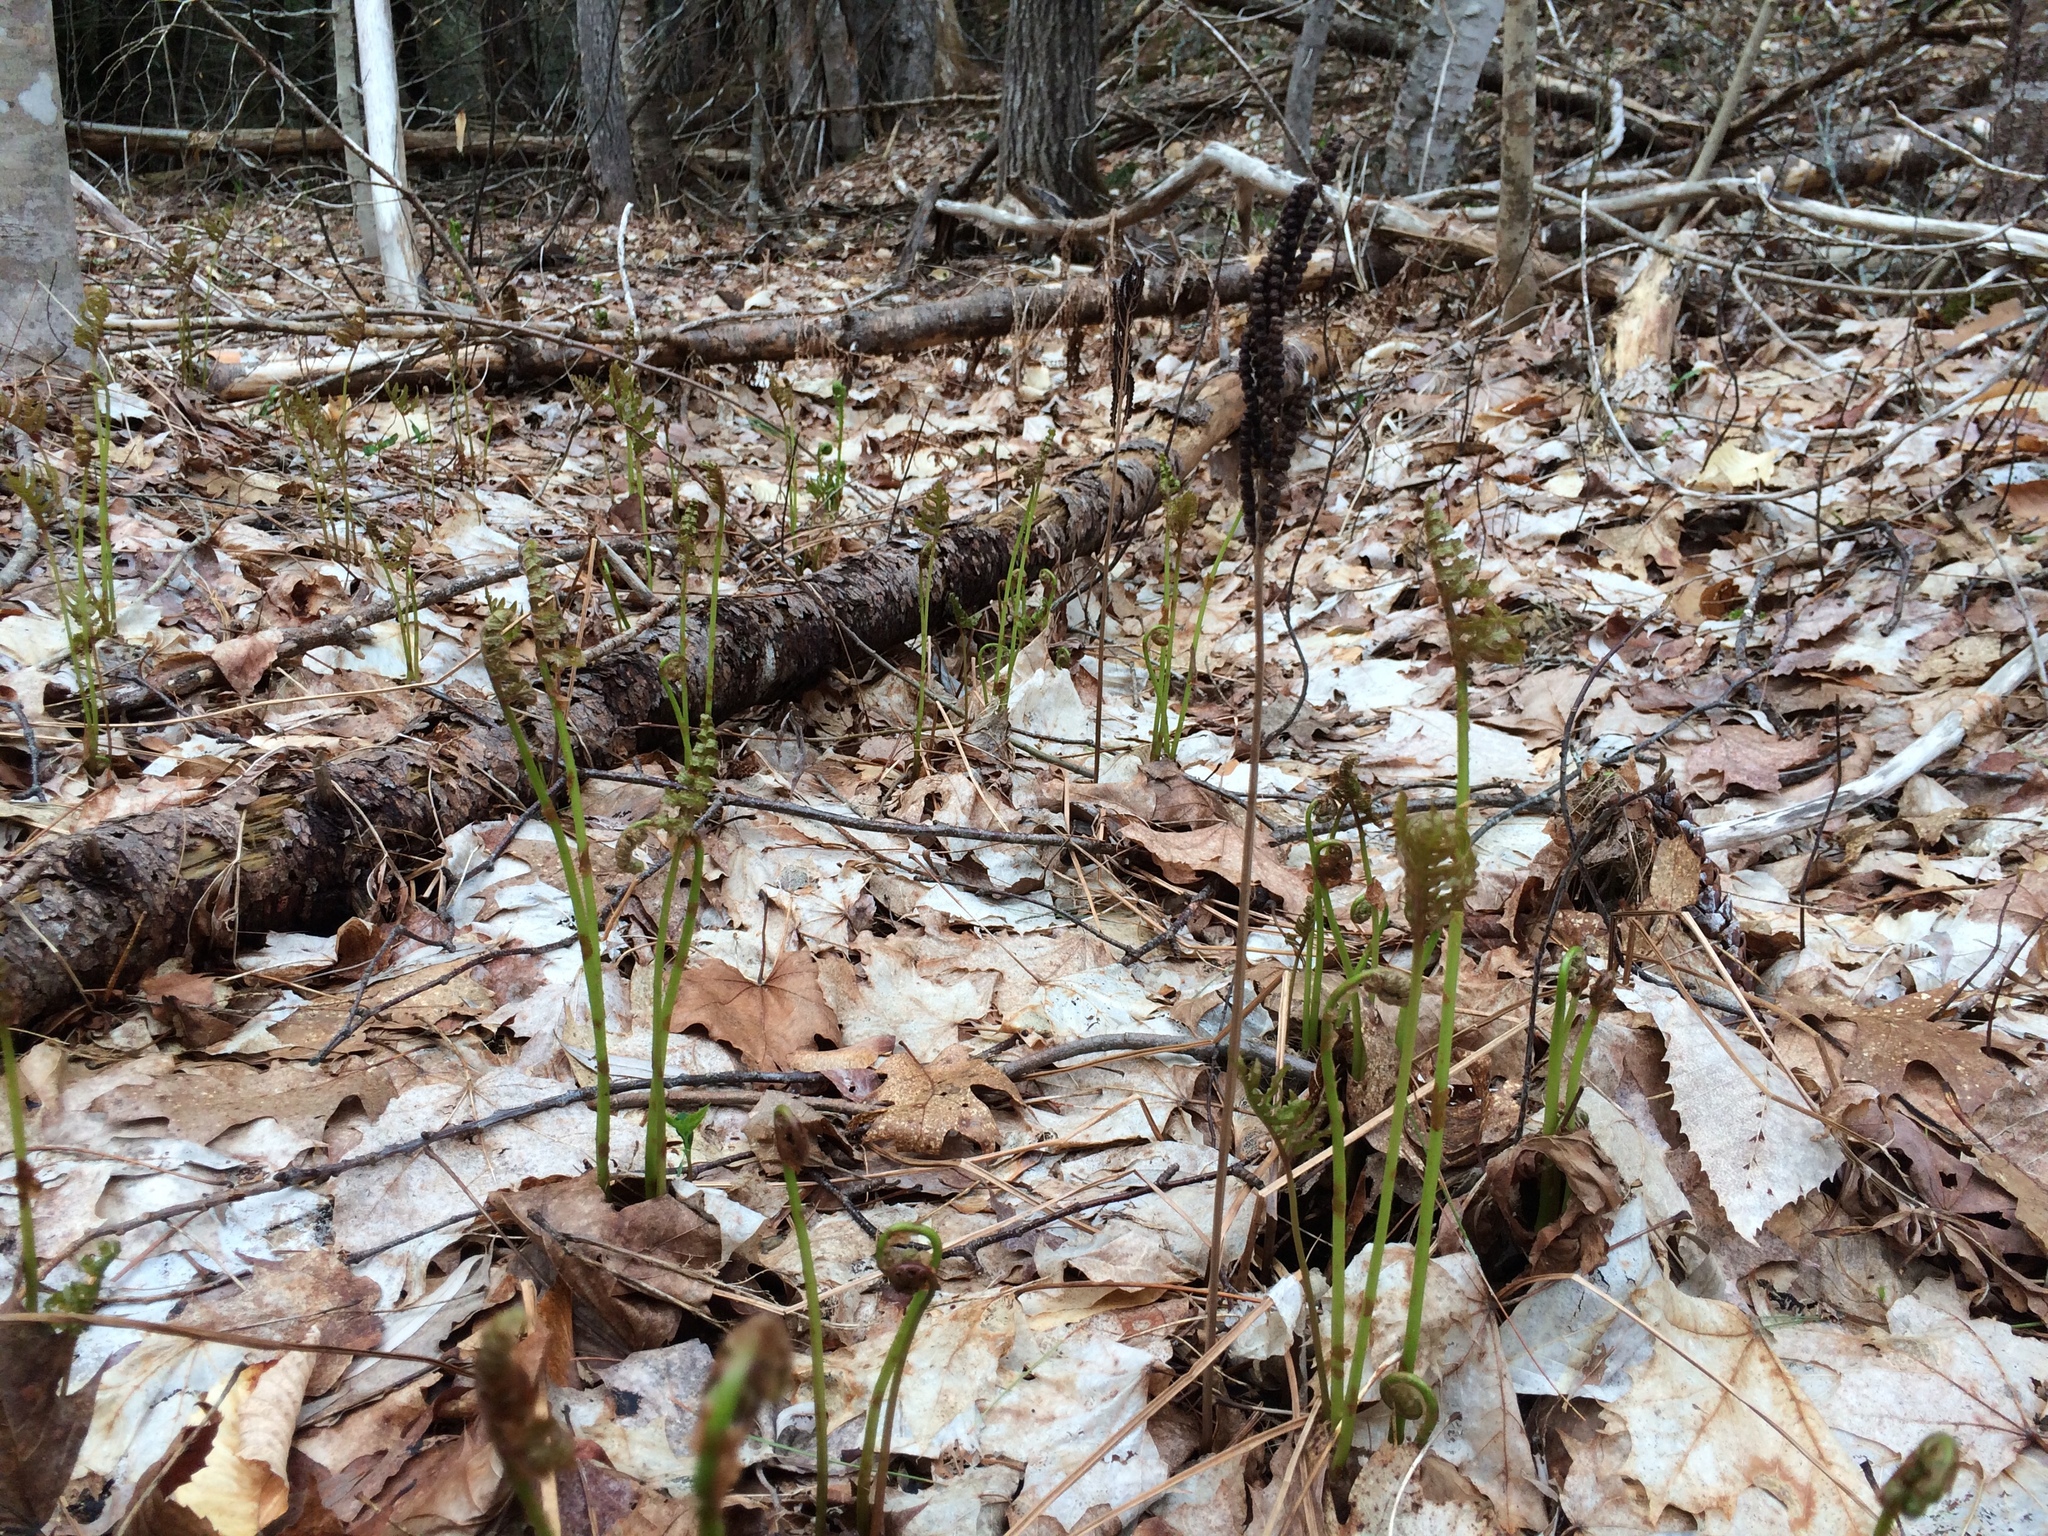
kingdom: Plantae
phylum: Tracheophyta
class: Polypodiopsida
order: Polypodiales
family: Onocleaceae
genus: Onoclea
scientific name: Onoclea sensibilis
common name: Sensitive fern
